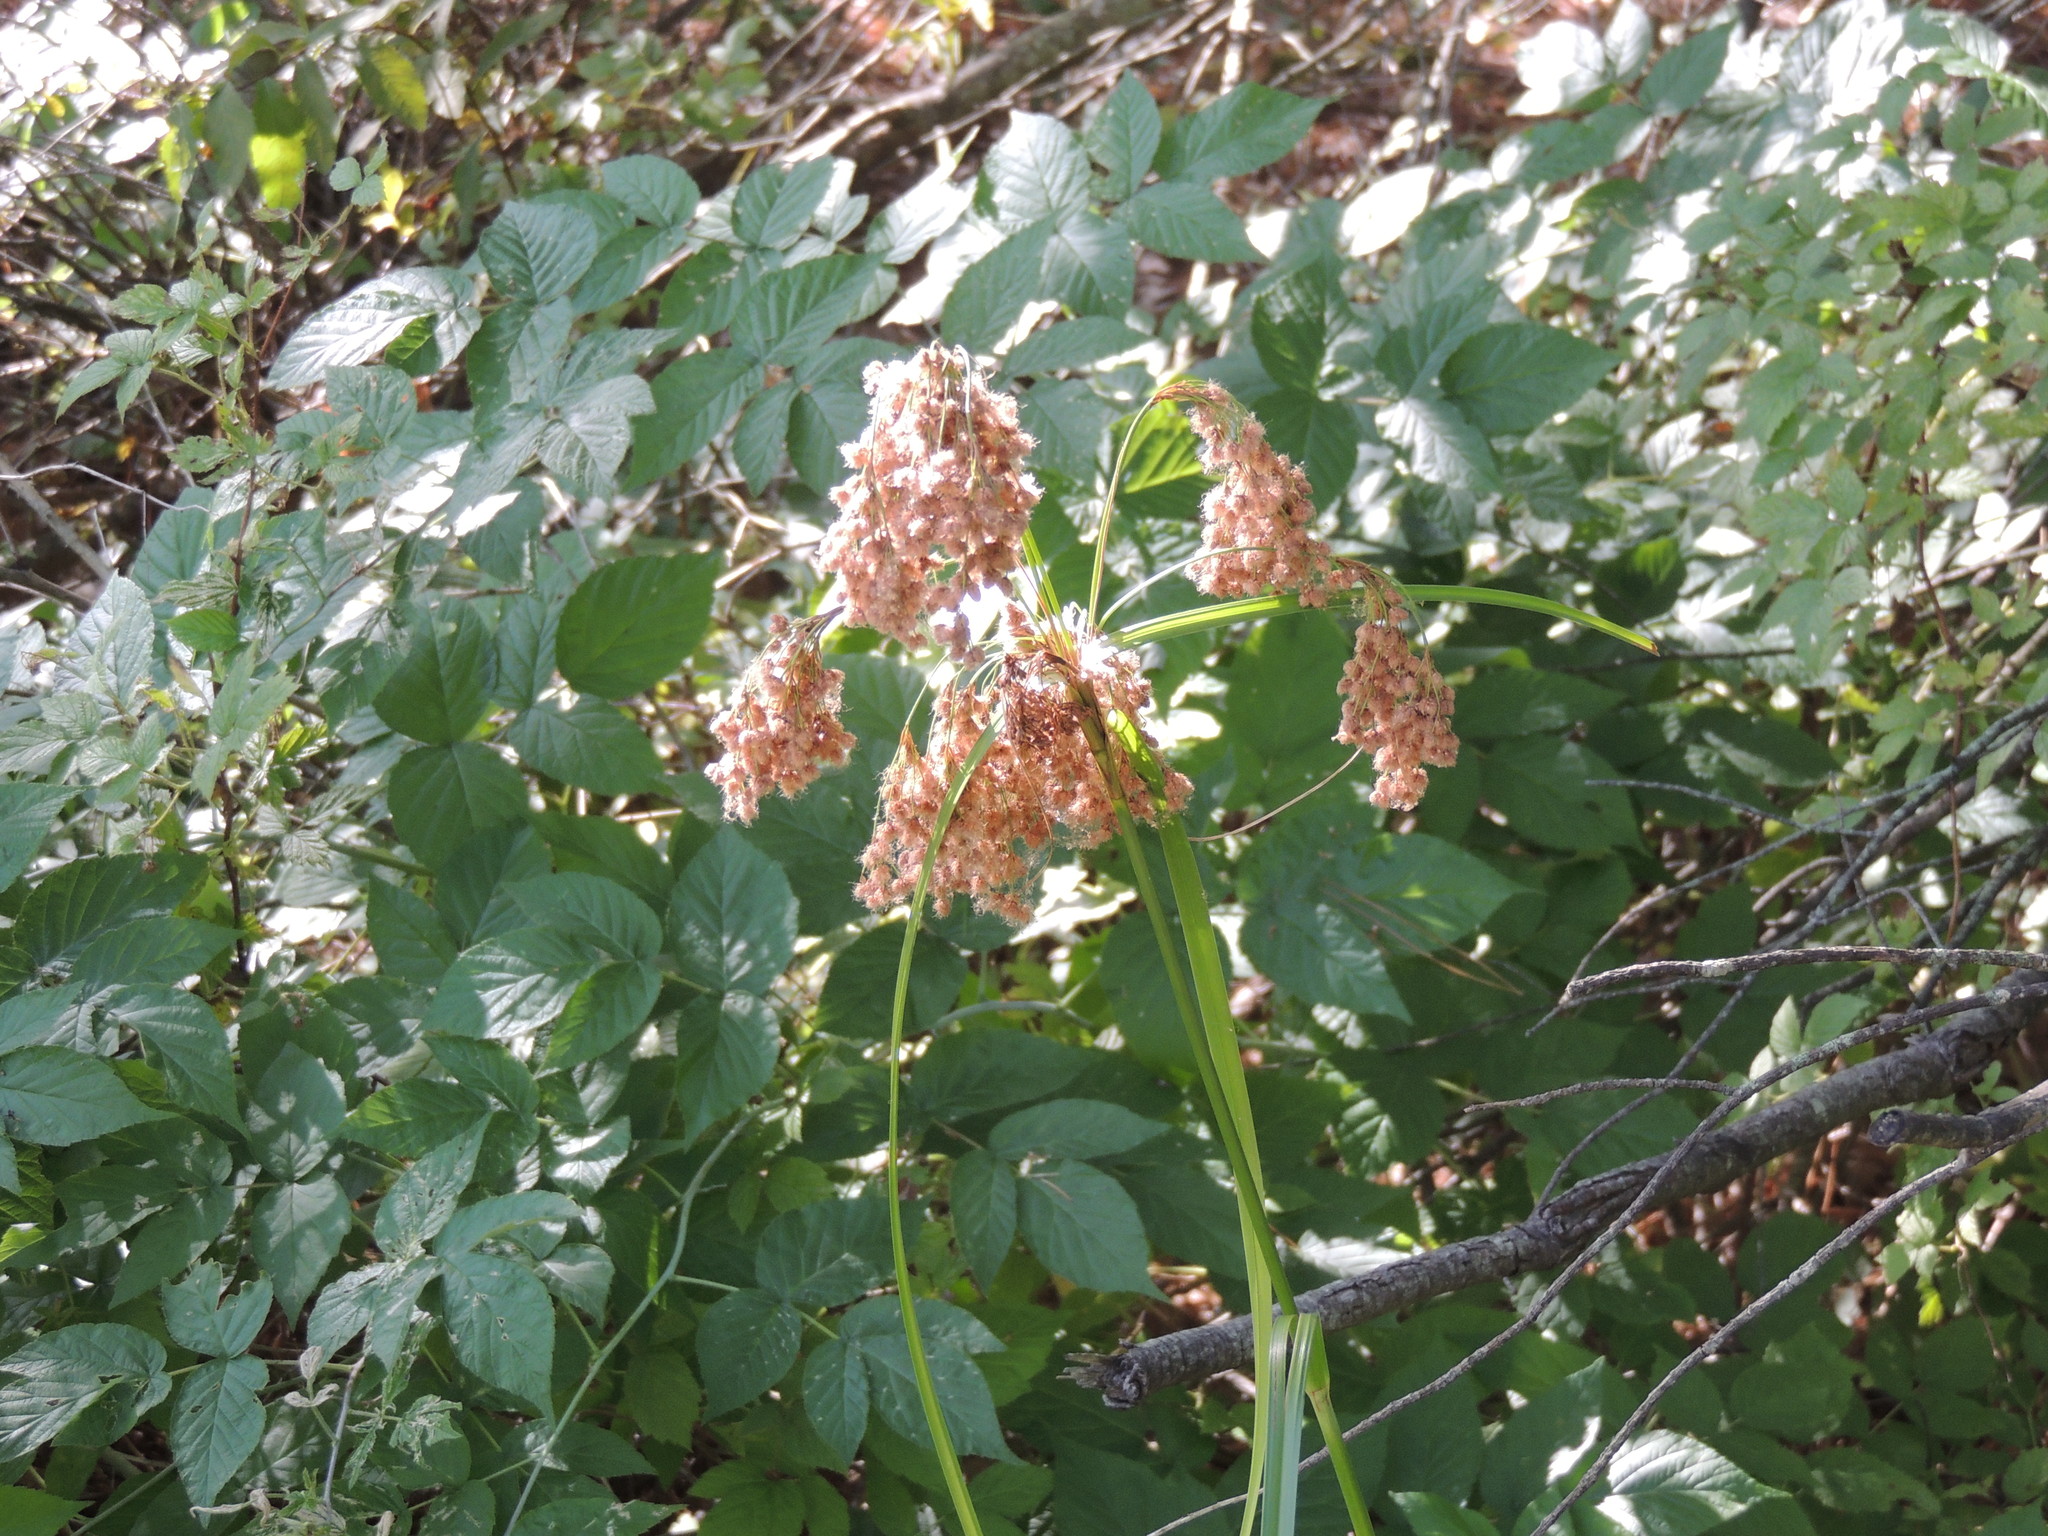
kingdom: Plantae
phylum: Tracheophyta
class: Liliopsida
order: Poales
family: Cyperaceae
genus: Scirpus
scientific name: Scirpus cyperinus
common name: Black-sheathed bulrush
